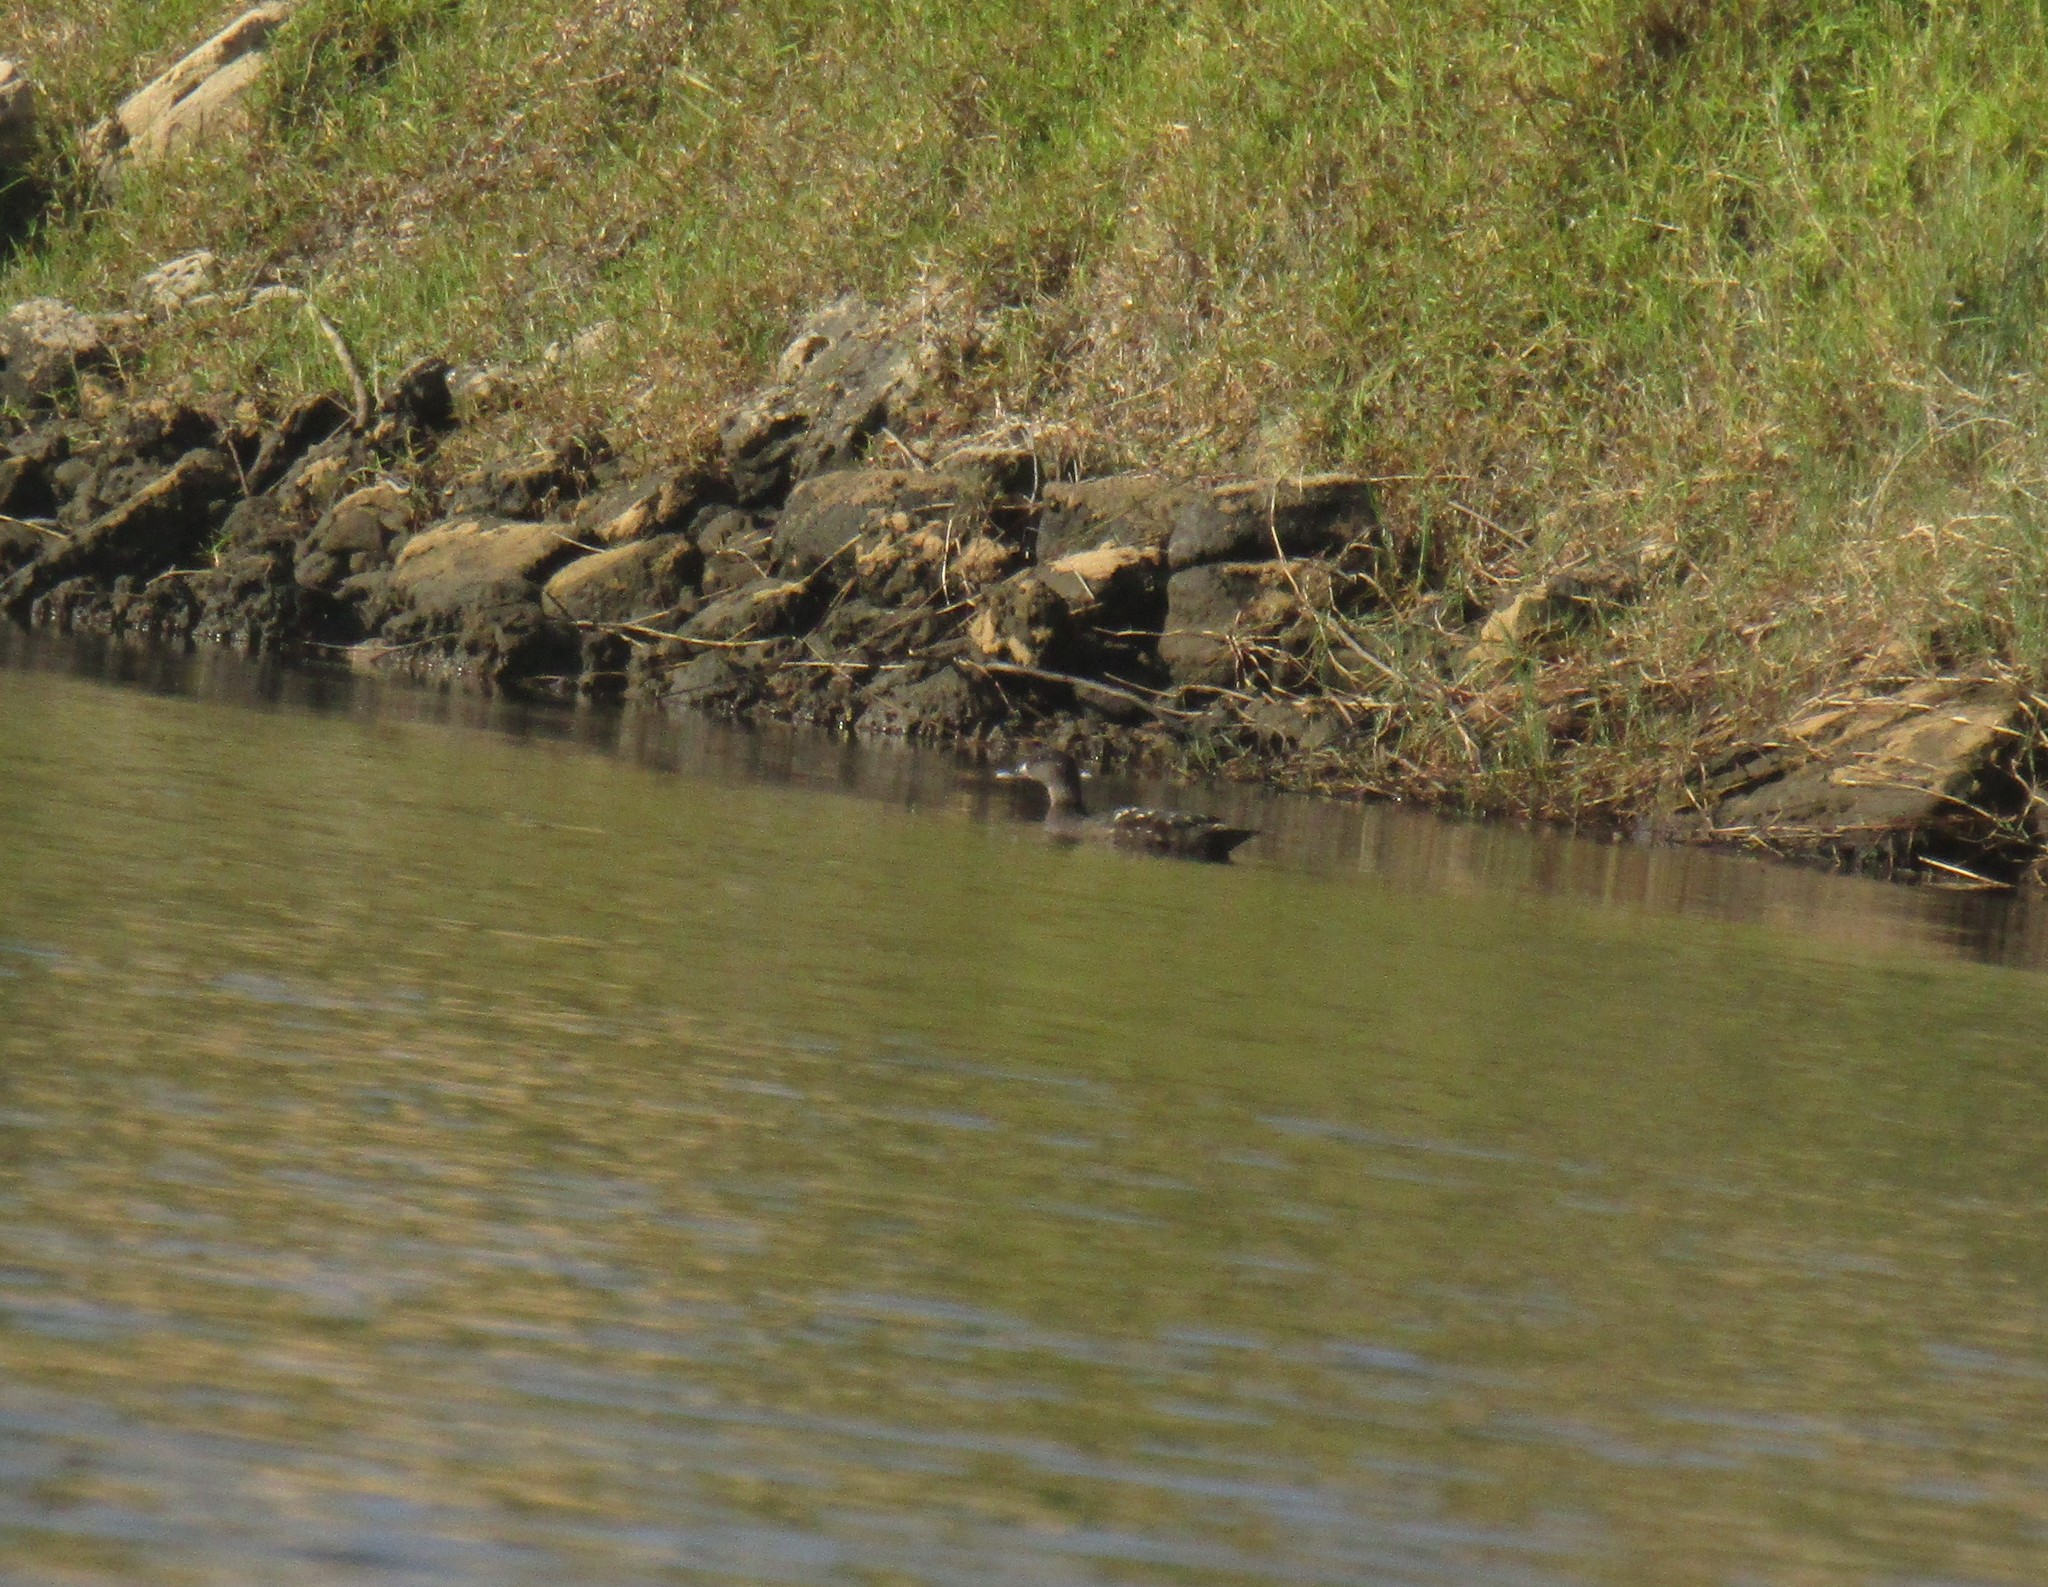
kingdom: Animalia
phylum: Chordata
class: Aves
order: Anseriformes
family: Anatidae
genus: Anas
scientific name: Anas sparsa
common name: African black duck
